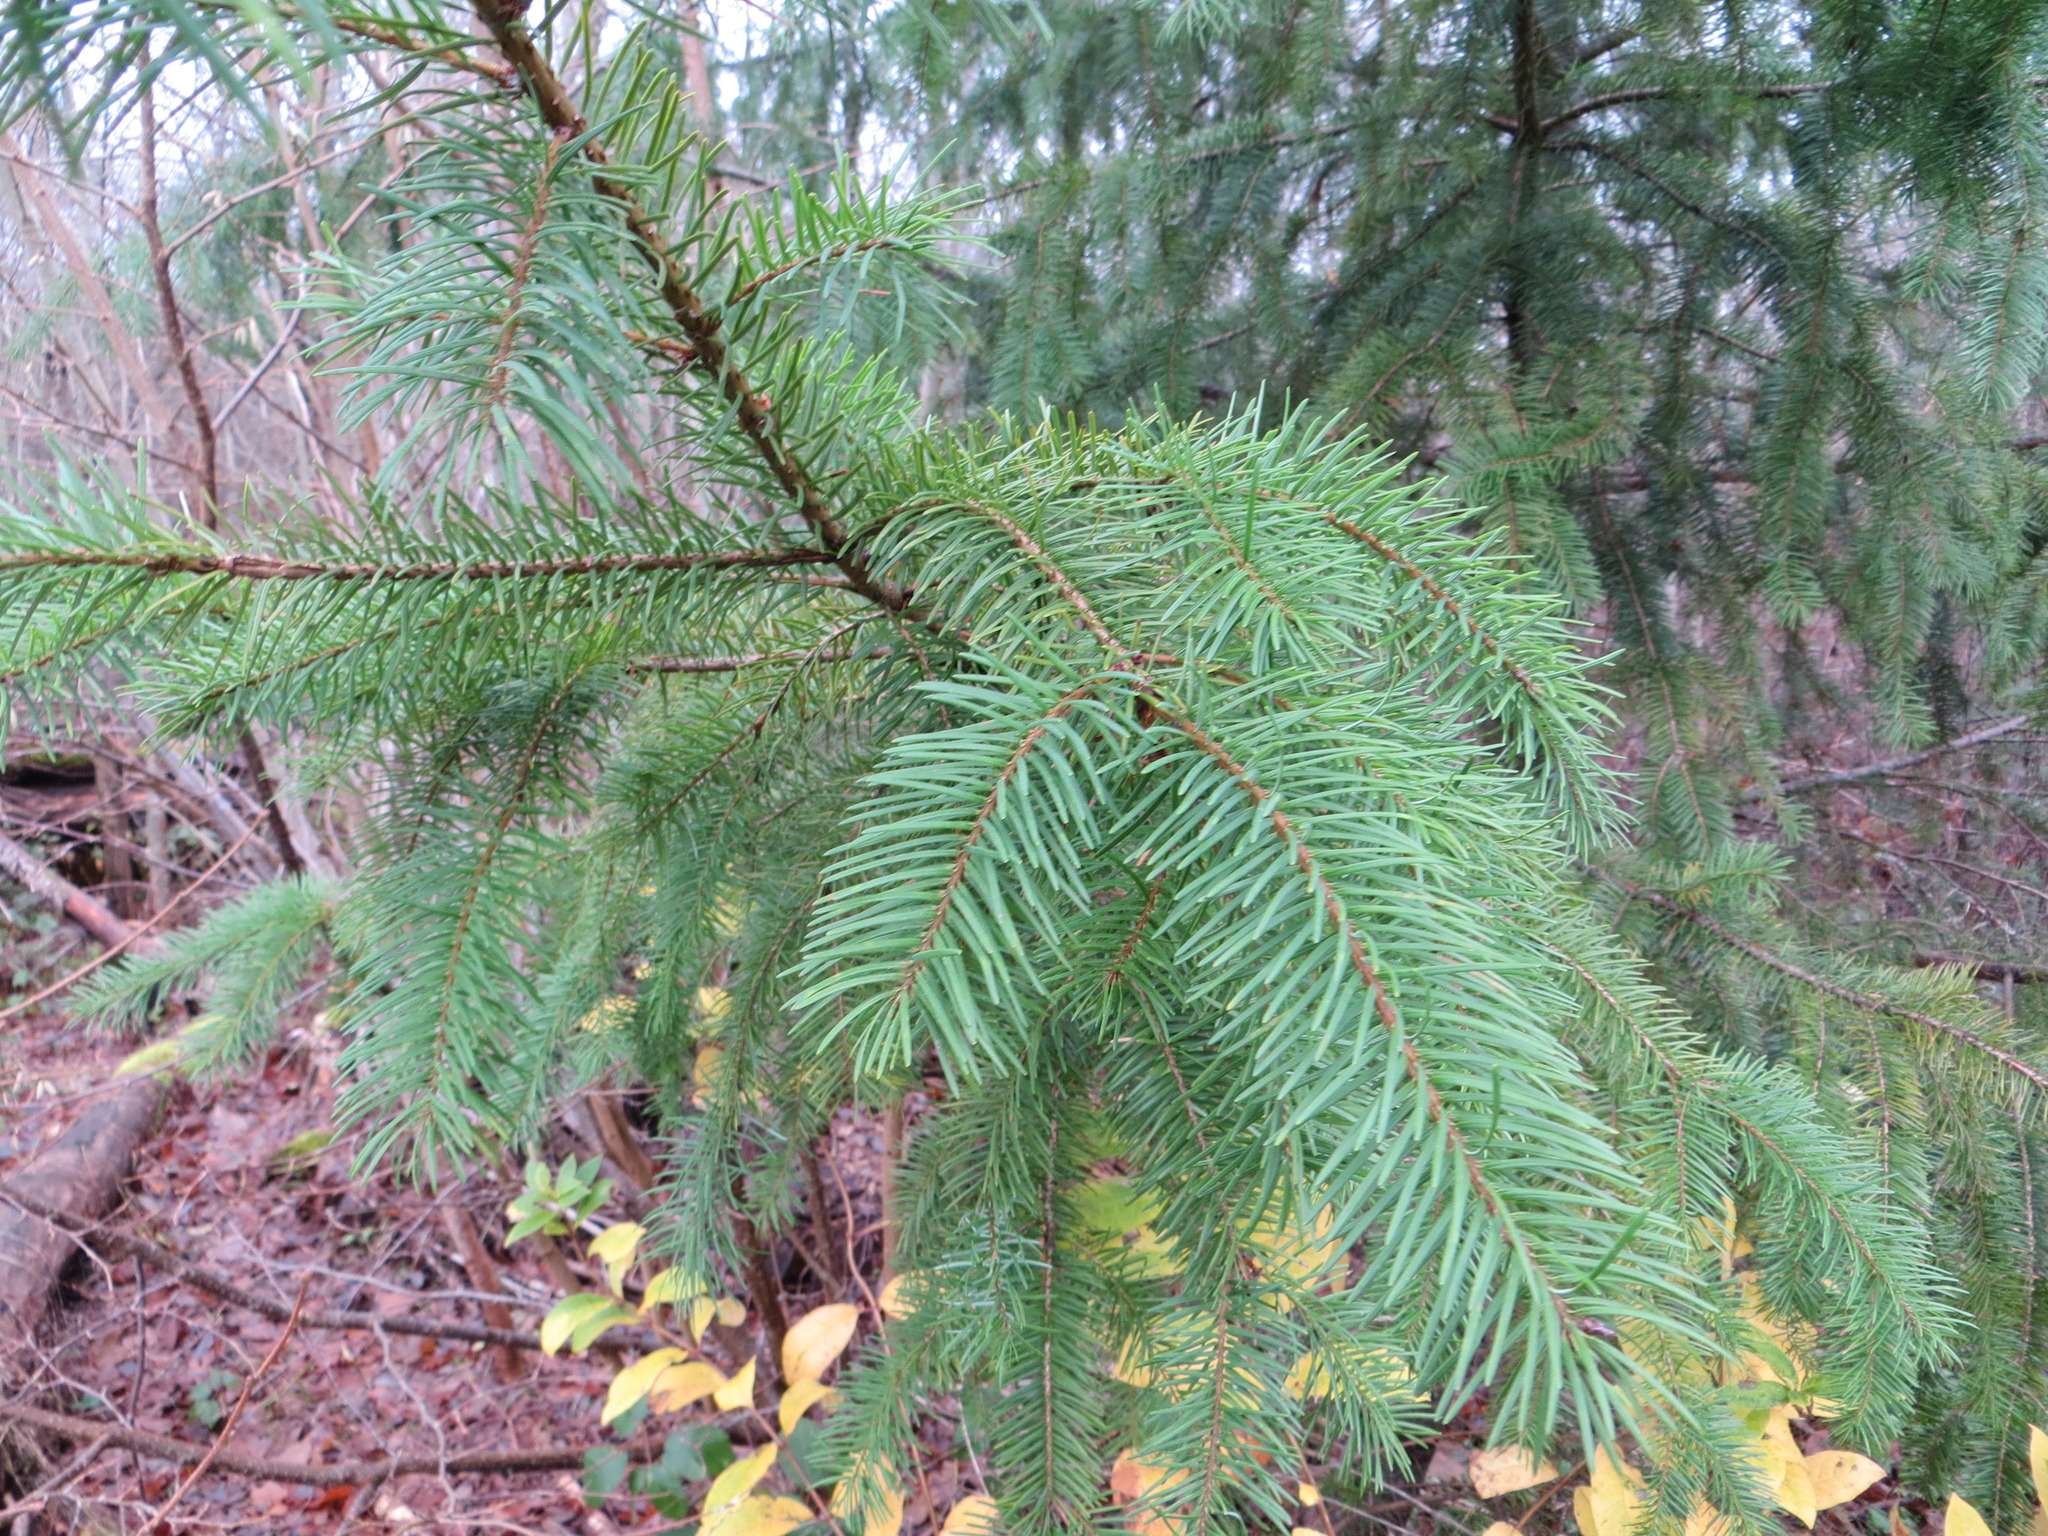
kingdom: Plantae
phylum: Tracheophyta
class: Pinopsida
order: Pinales
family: Pinaceae
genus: Pseudotsuga
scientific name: Pseudotsuga menziesii
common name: Douglas fir
